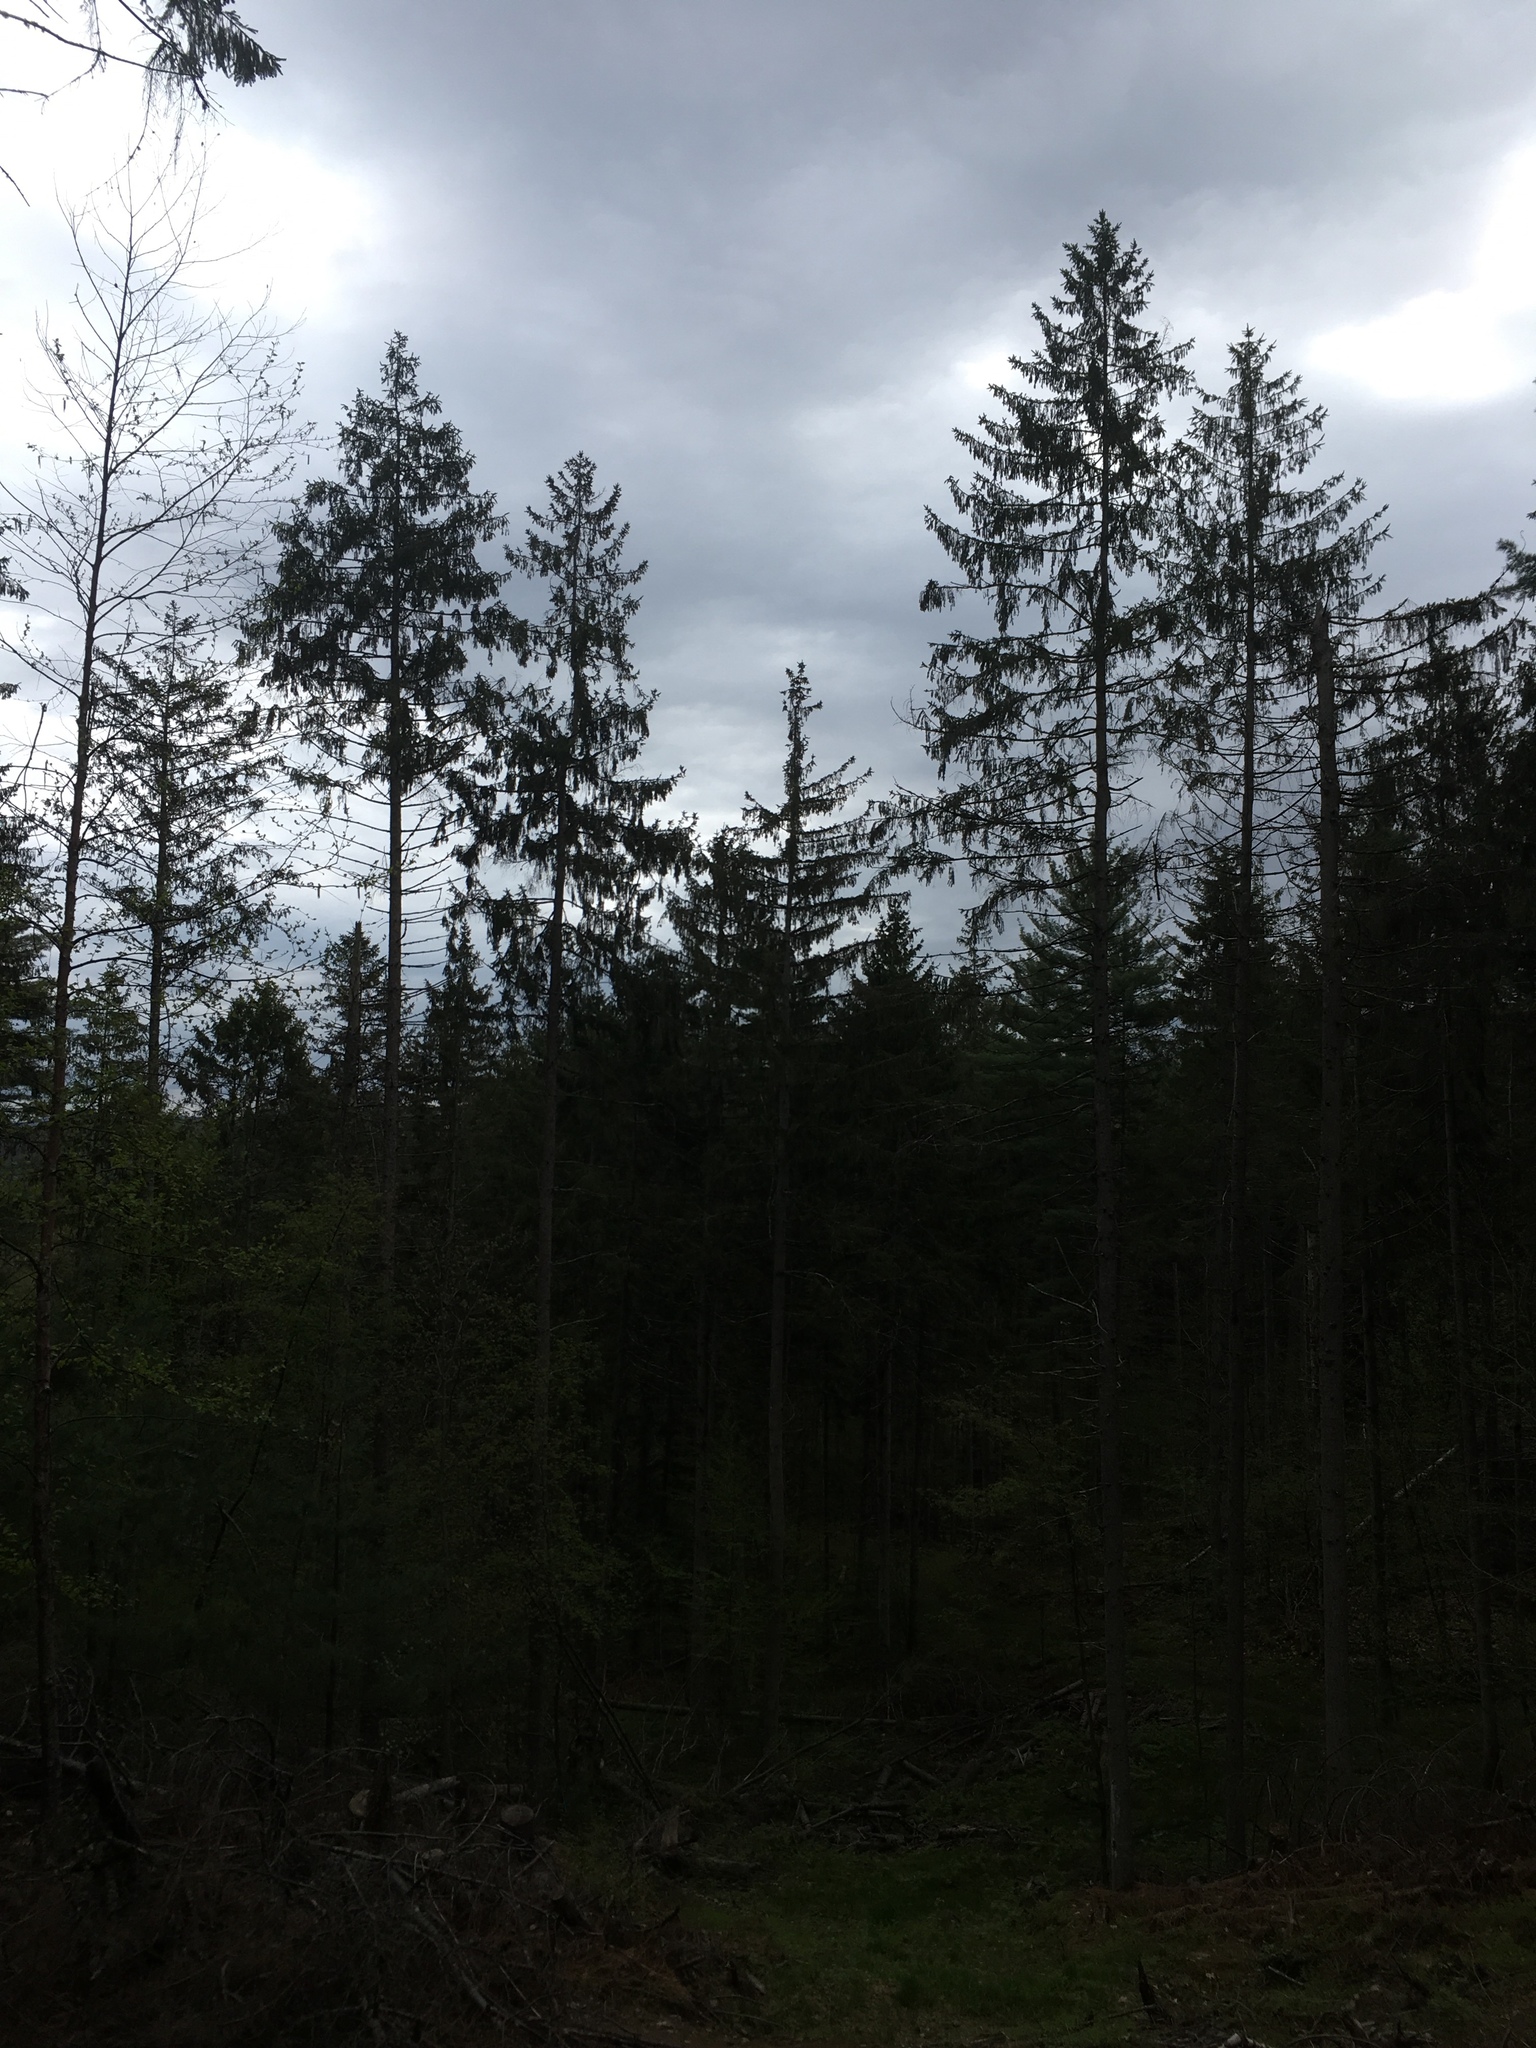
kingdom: Plantae
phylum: Tracheophyta
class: Pinopsida
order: Pinales
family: Pinaceae
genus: Picea
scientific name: Picea abies
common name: Norway spruce
